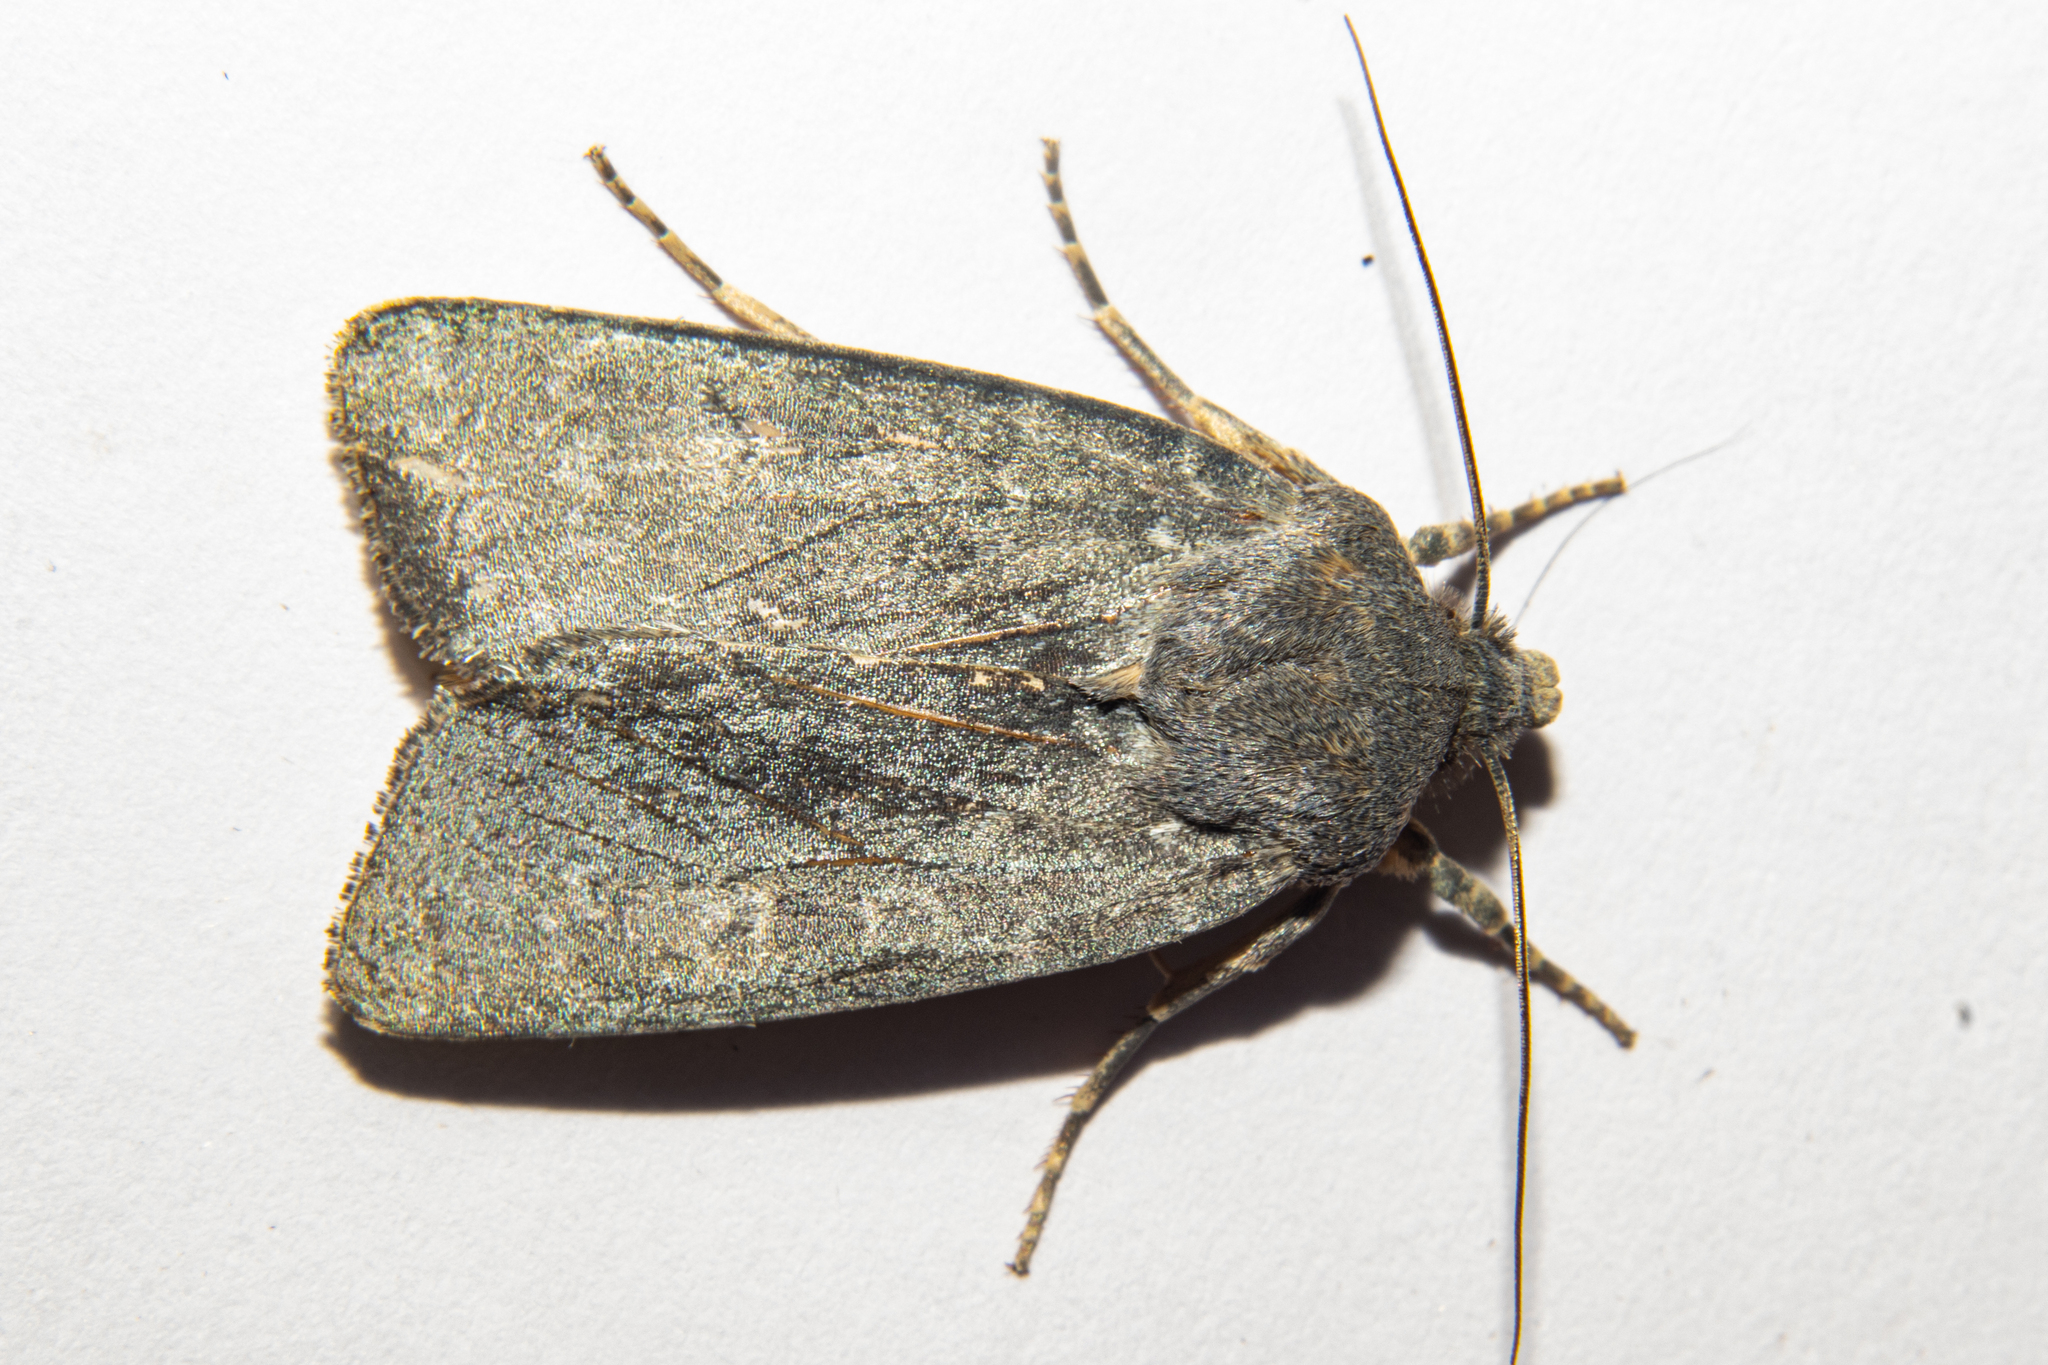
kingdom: Animalia
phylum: Arthropoda
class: Insecta
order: Lepidoptera
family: Noctuidae
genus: Physetica
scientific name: Physetica caerulea
